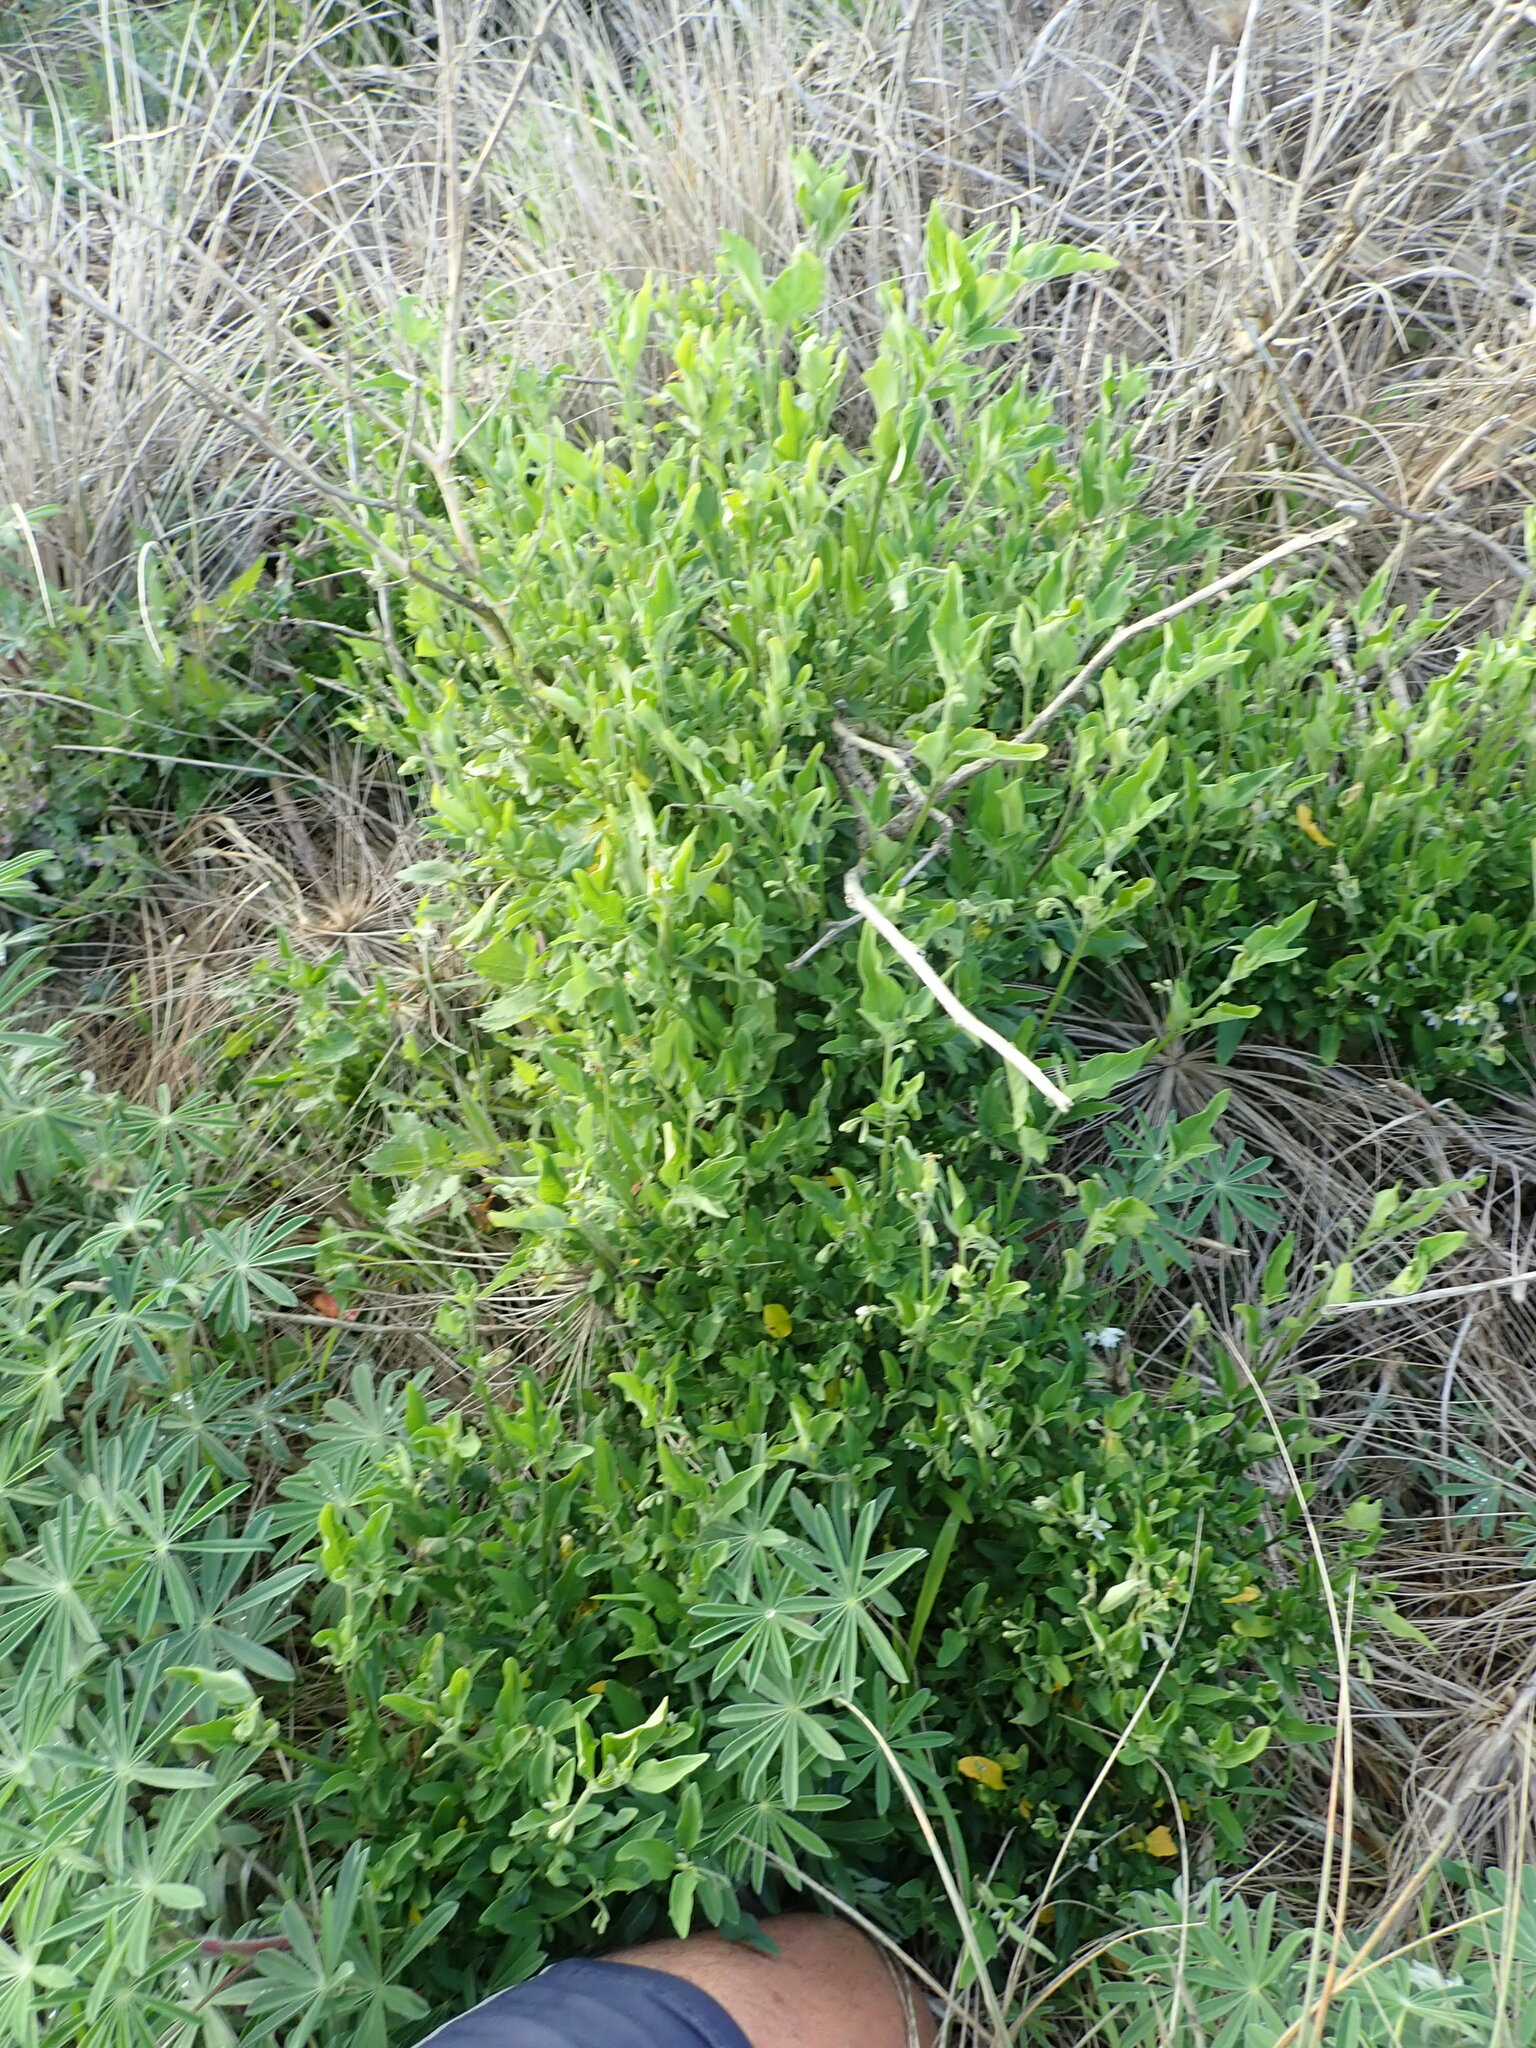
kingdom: Plantae
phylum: Tracheophyta
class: Magnoliopsida
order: Solanales
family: Solanaceae
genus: Solanum
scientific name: Solanum chenopodioides
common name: Tall nightshade
